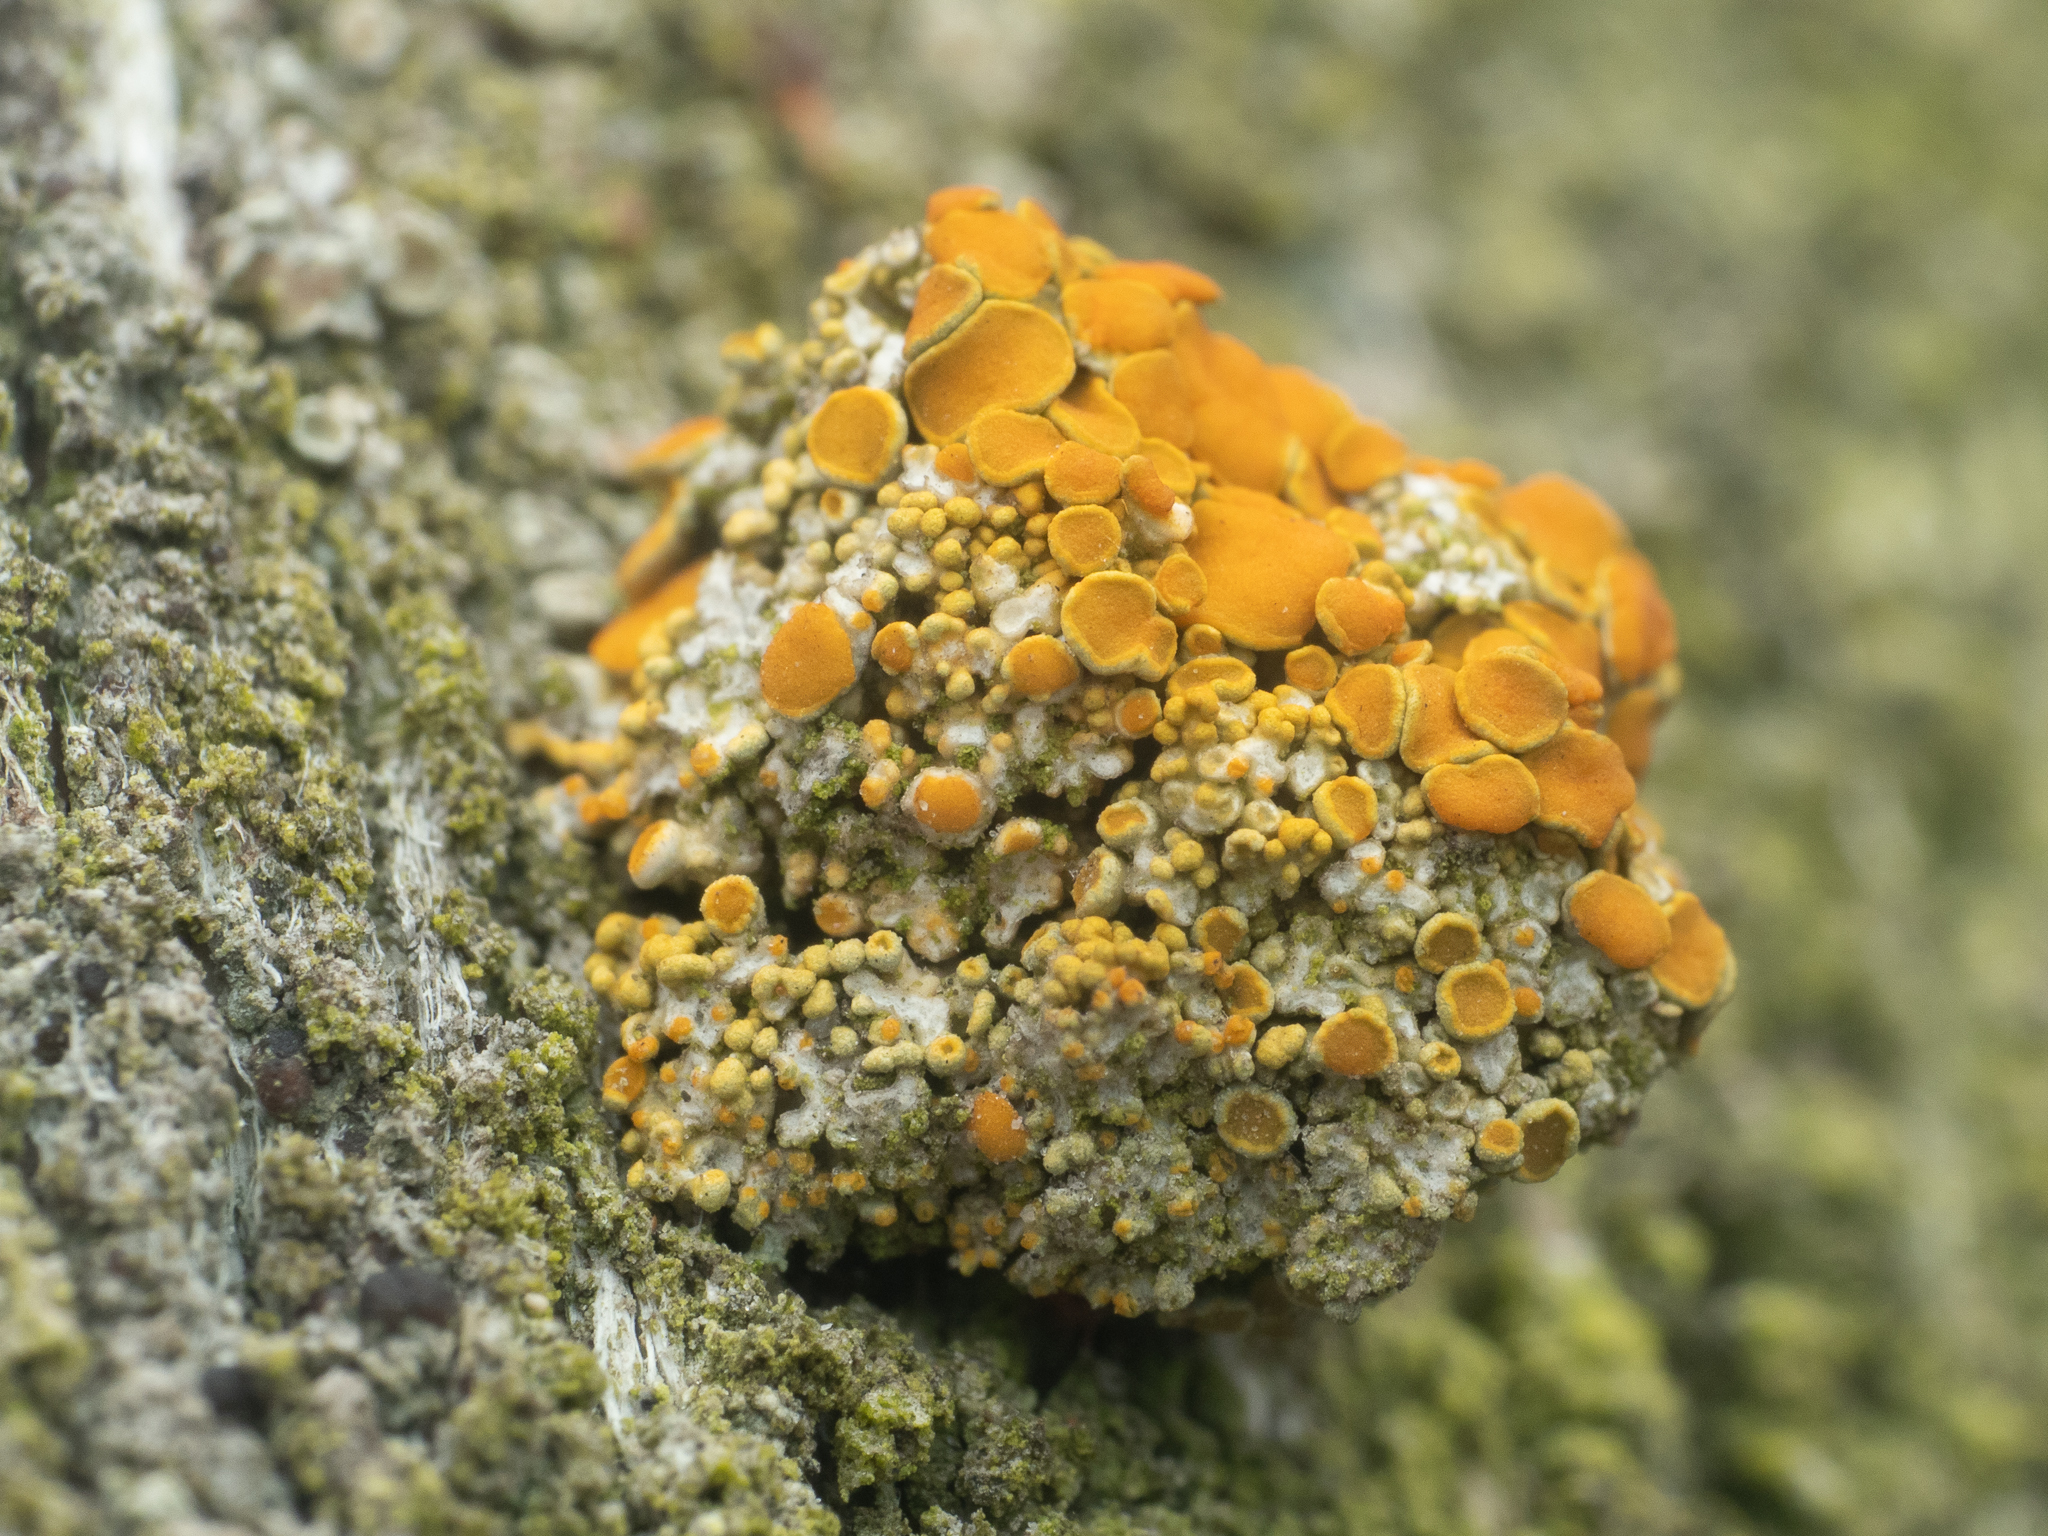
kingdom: Fungi
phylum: Ascomycota
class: Lecanoromycetes
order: Teloschistales
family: Teloschistaceae
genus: Polycauliona
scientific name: Polycauliona polycarpa
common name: Pin-cushion sunburst lichen
